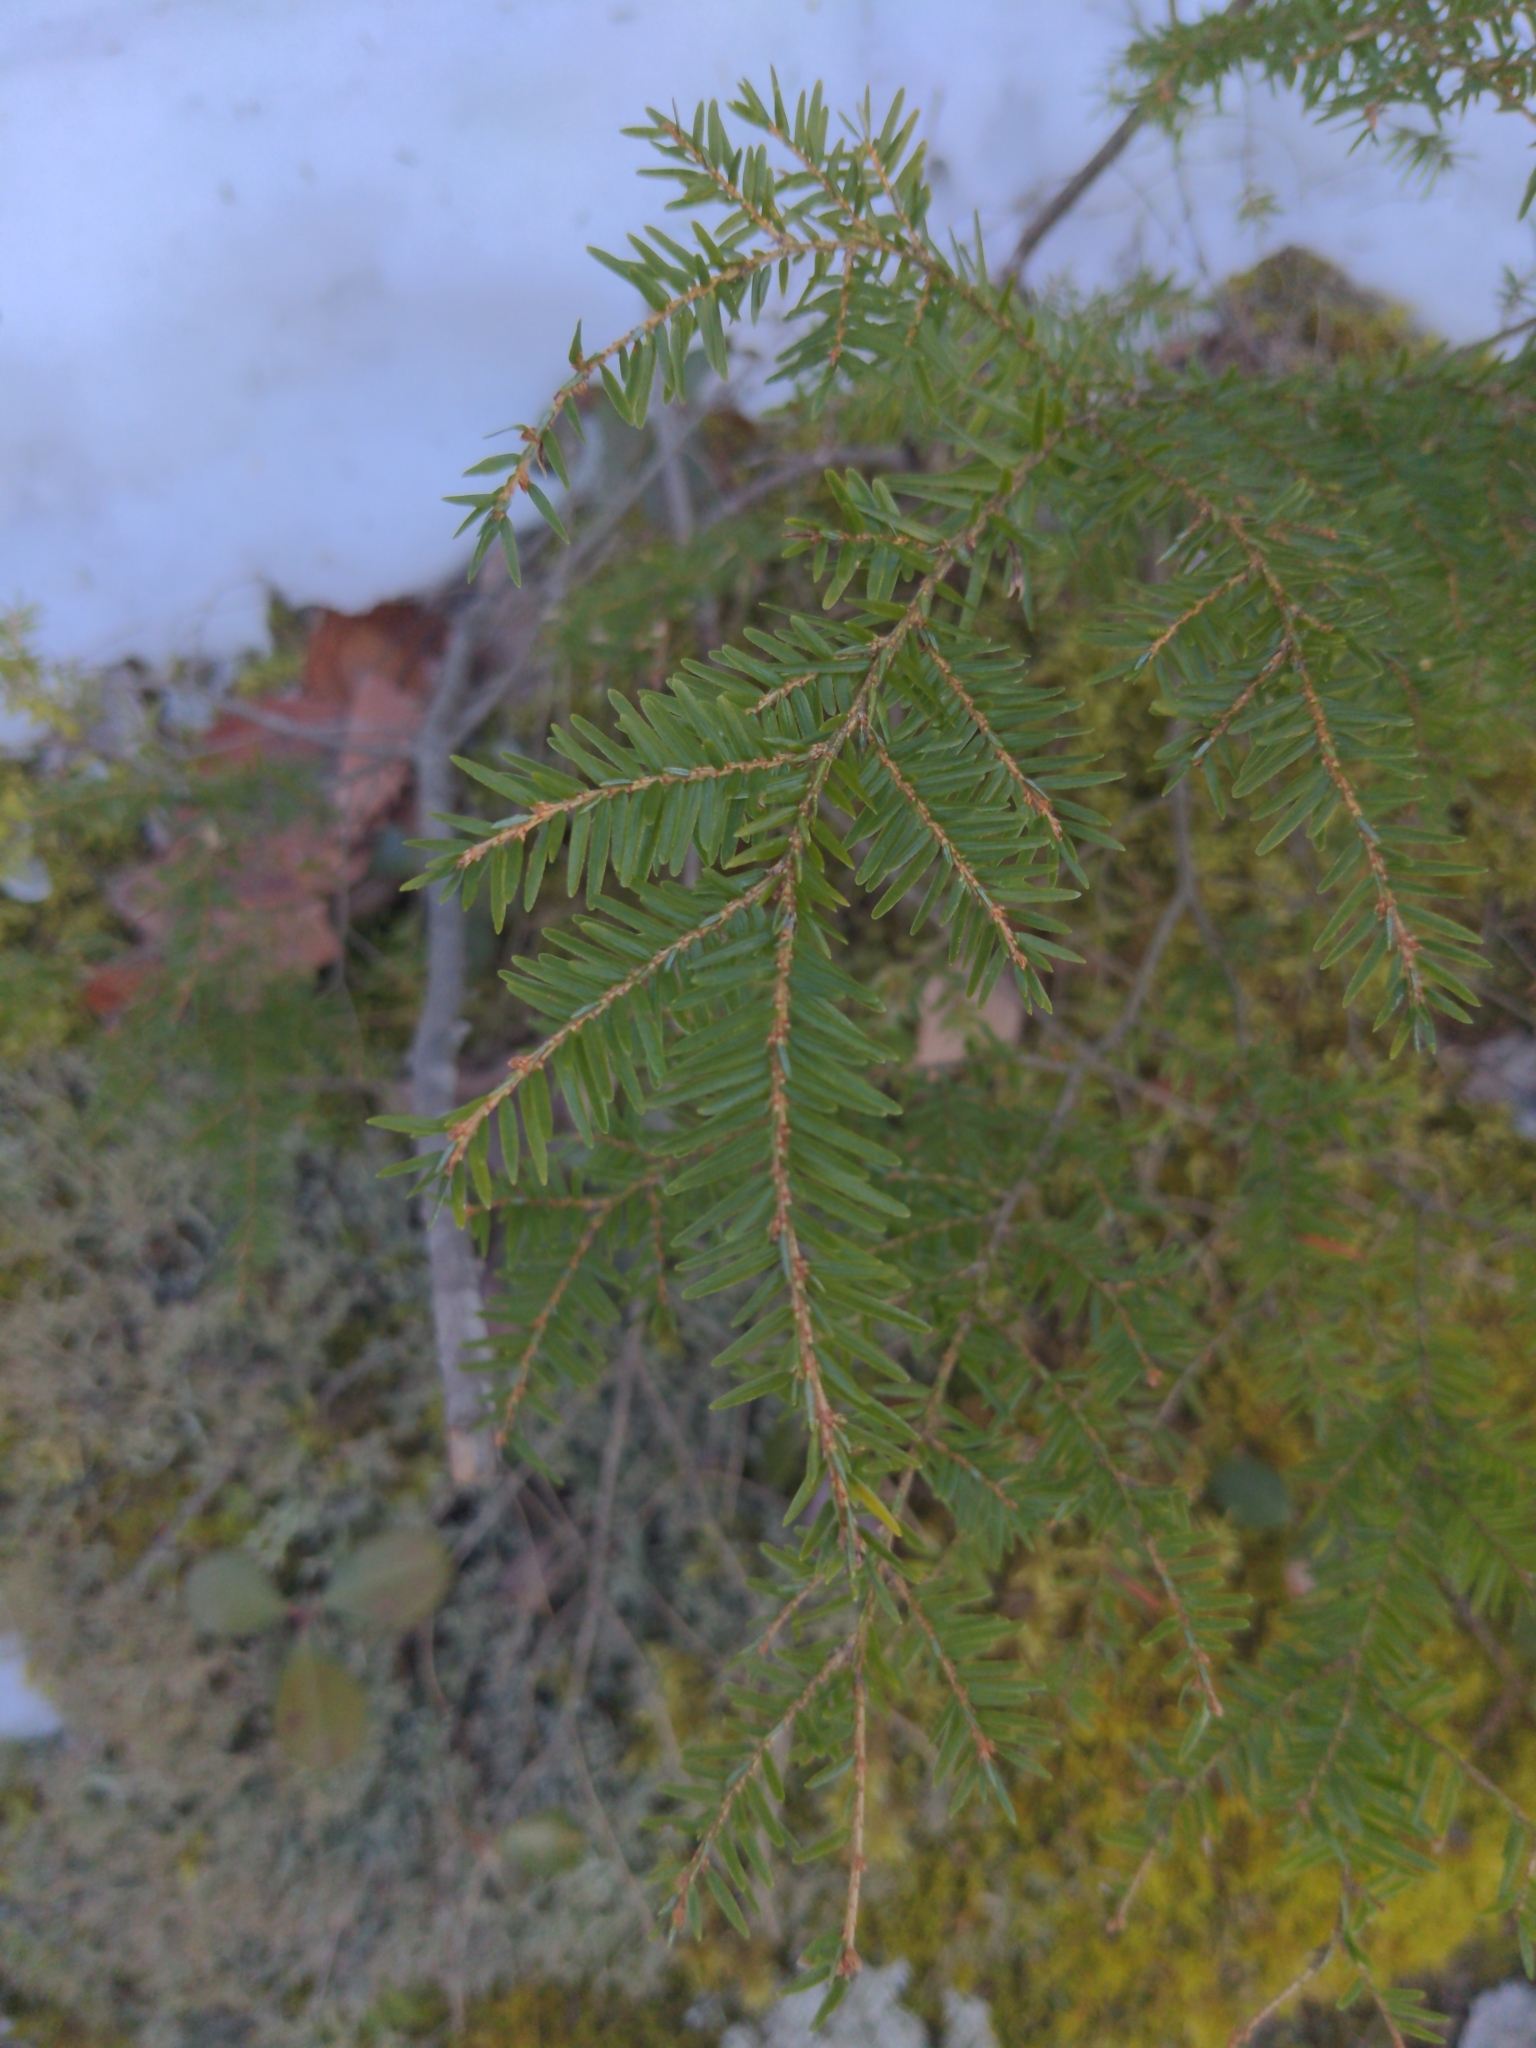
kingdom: Plantae
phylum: Tracheophyta
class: Pinopsida
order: Pinales
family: Pinaceae
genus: Tsuga
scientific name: Tsuga canadensis
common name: Eastern hemlock
